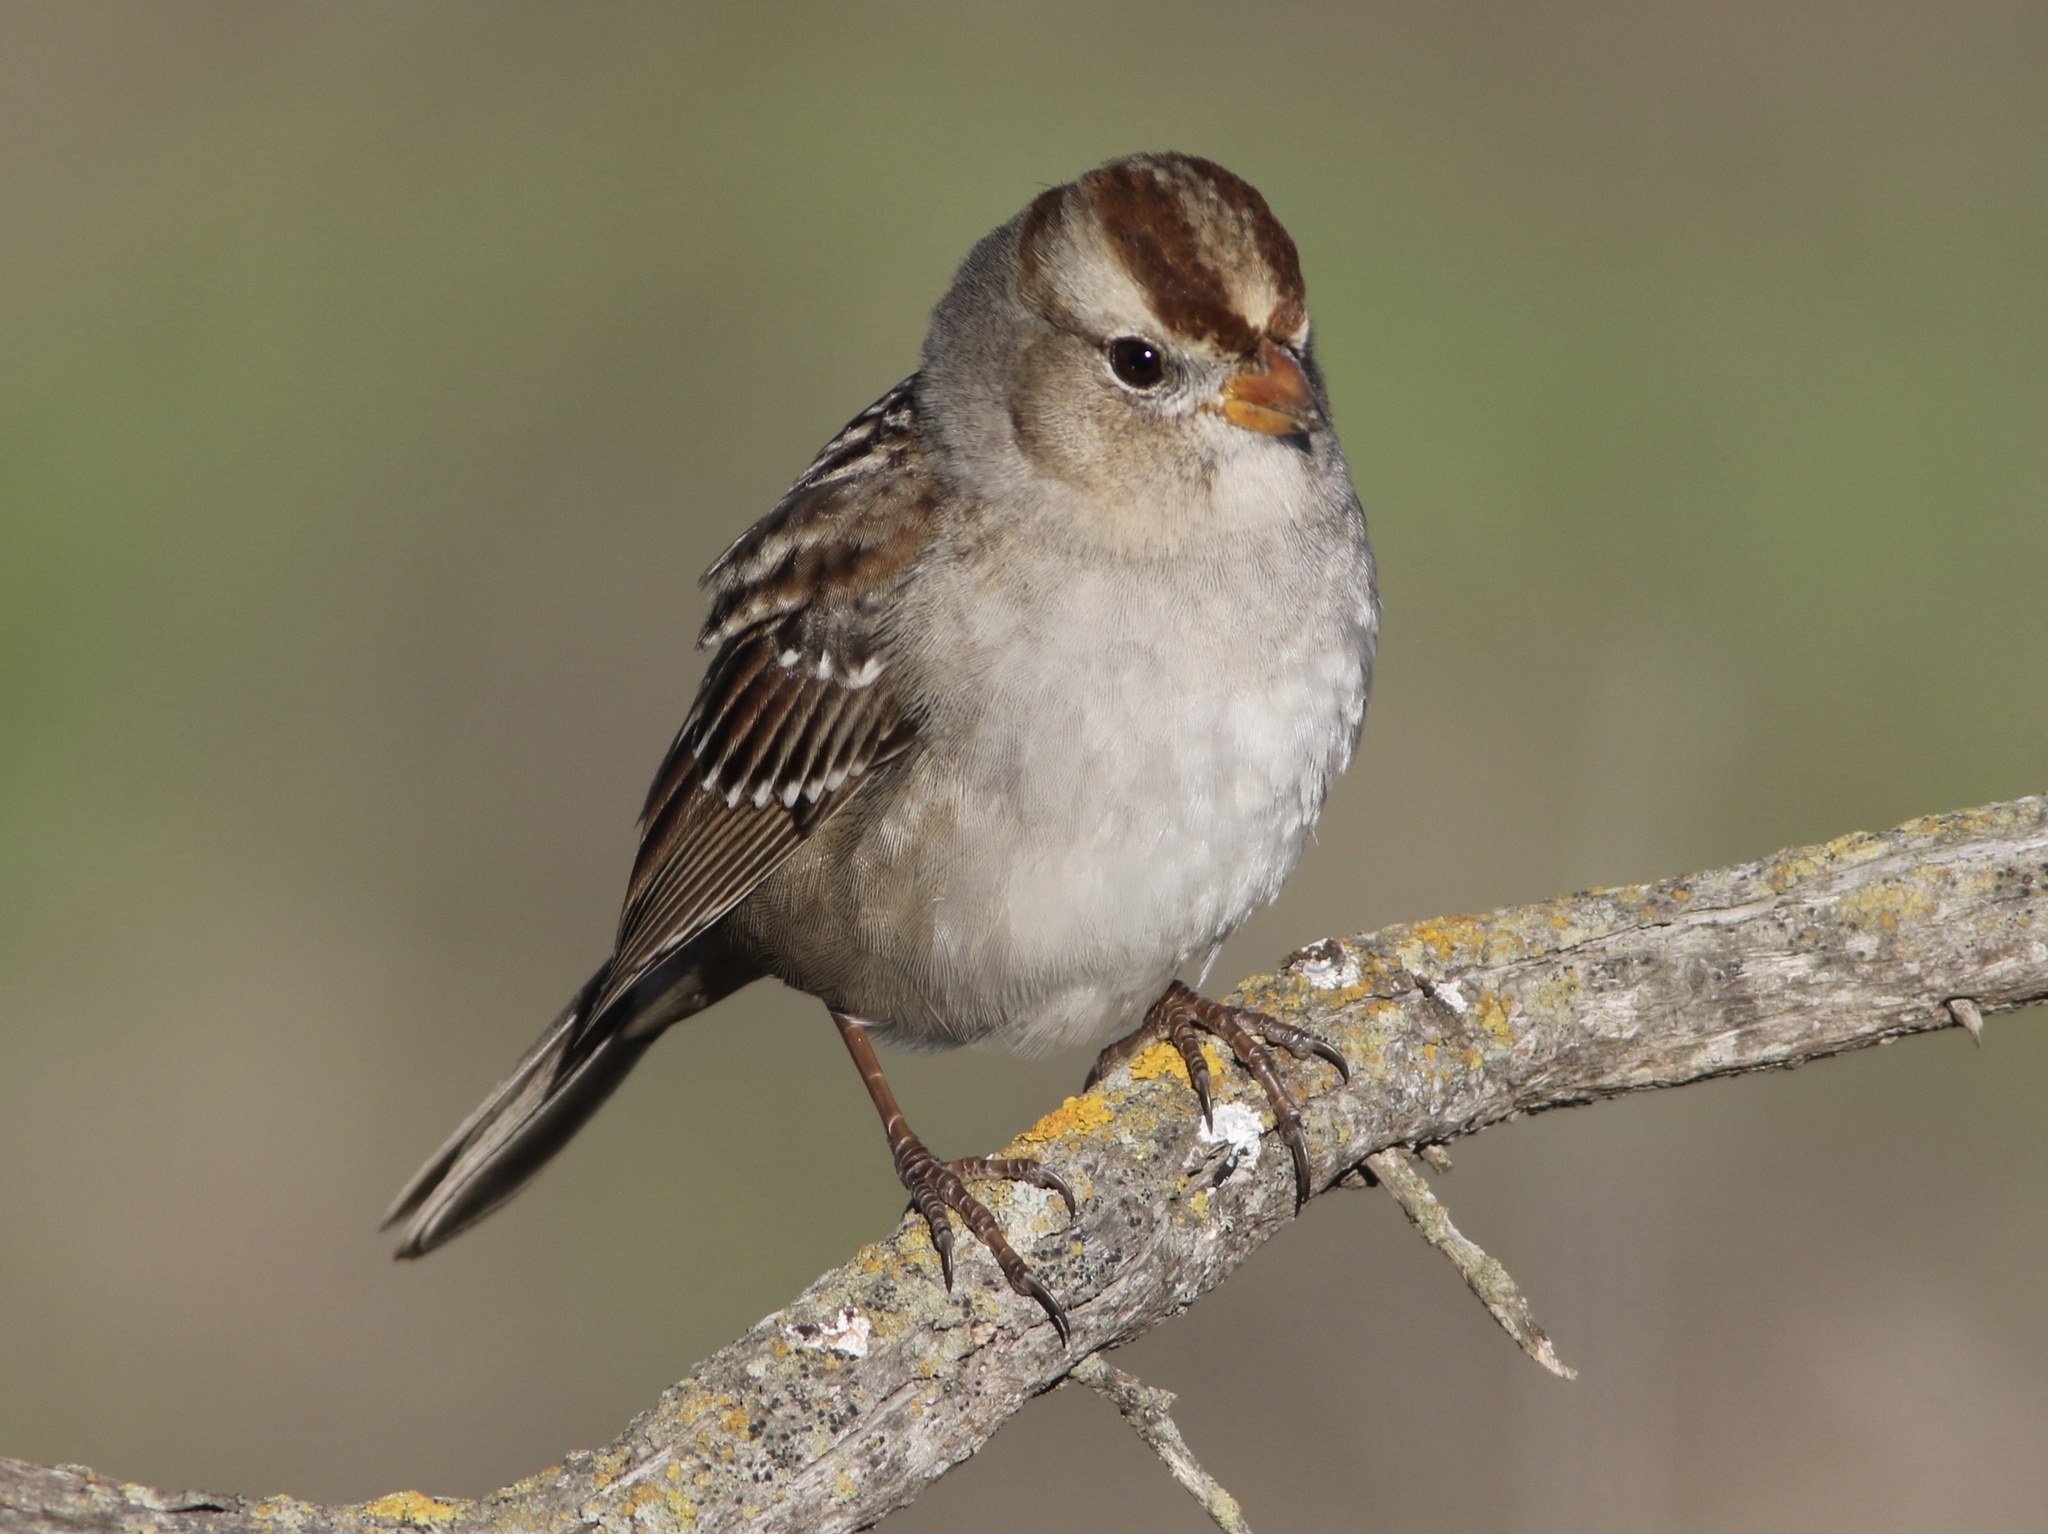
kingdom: Animalia
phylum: Chordata
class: Aves
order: Passeriformes
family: Passerellidae
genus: Zonotrichia
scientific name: Zonotrichia leucophrys
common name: White-crowned sparrow
